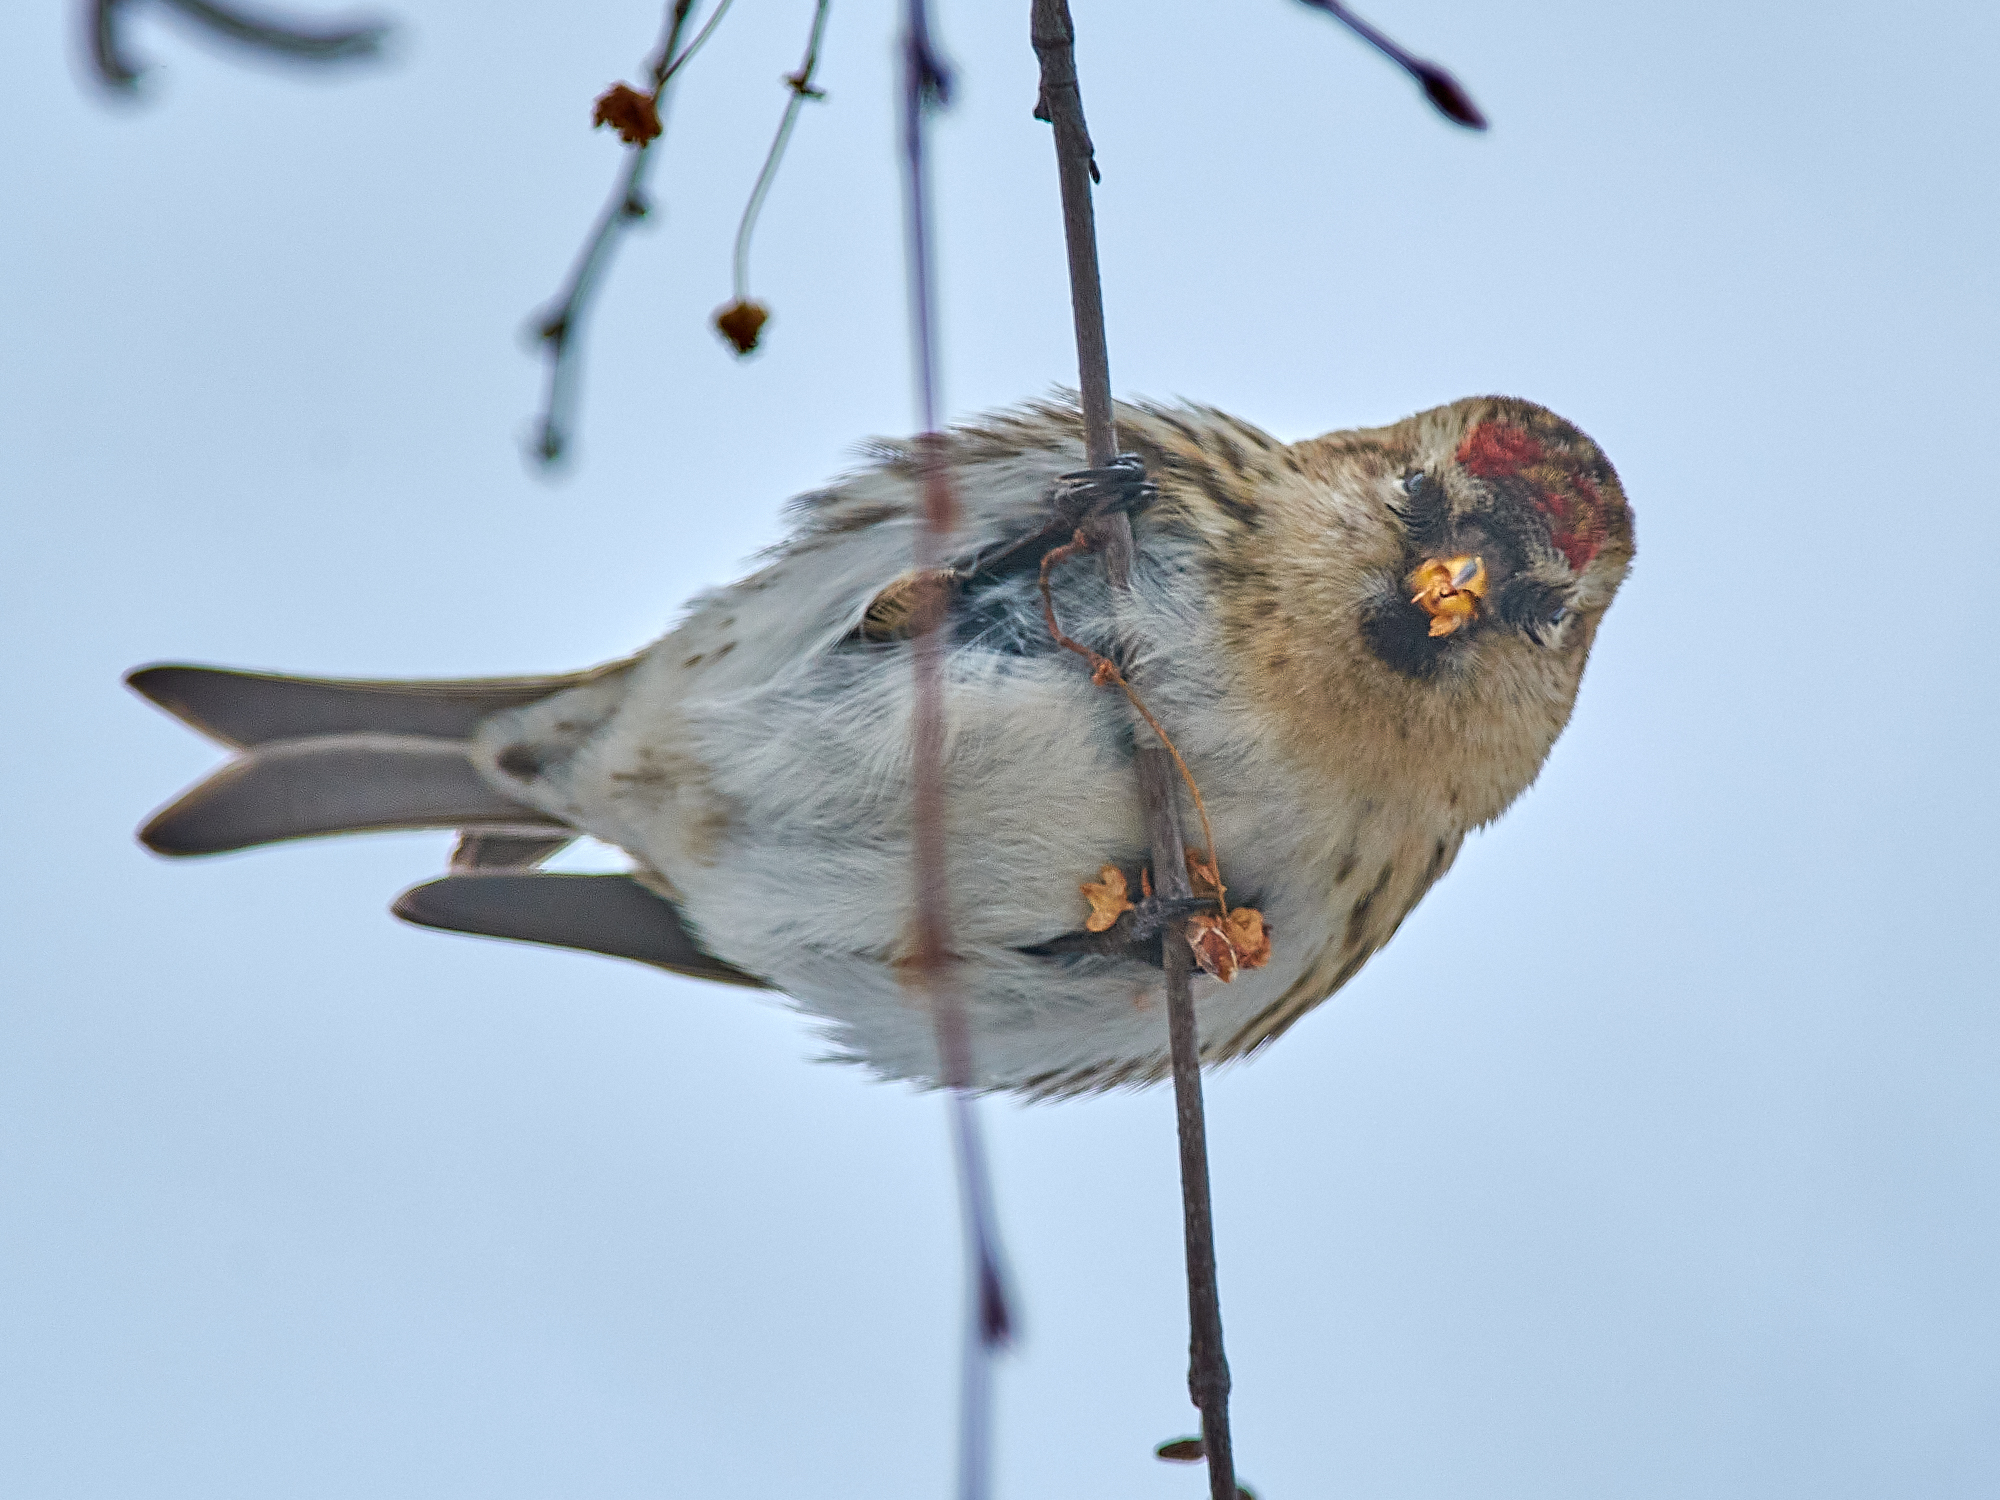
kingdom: Animalia
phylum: Chordata
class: Aves
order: Passeriformes
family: Fringillidae
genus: Acanthis
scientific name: Acanthis flammea
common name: Common redpoll
